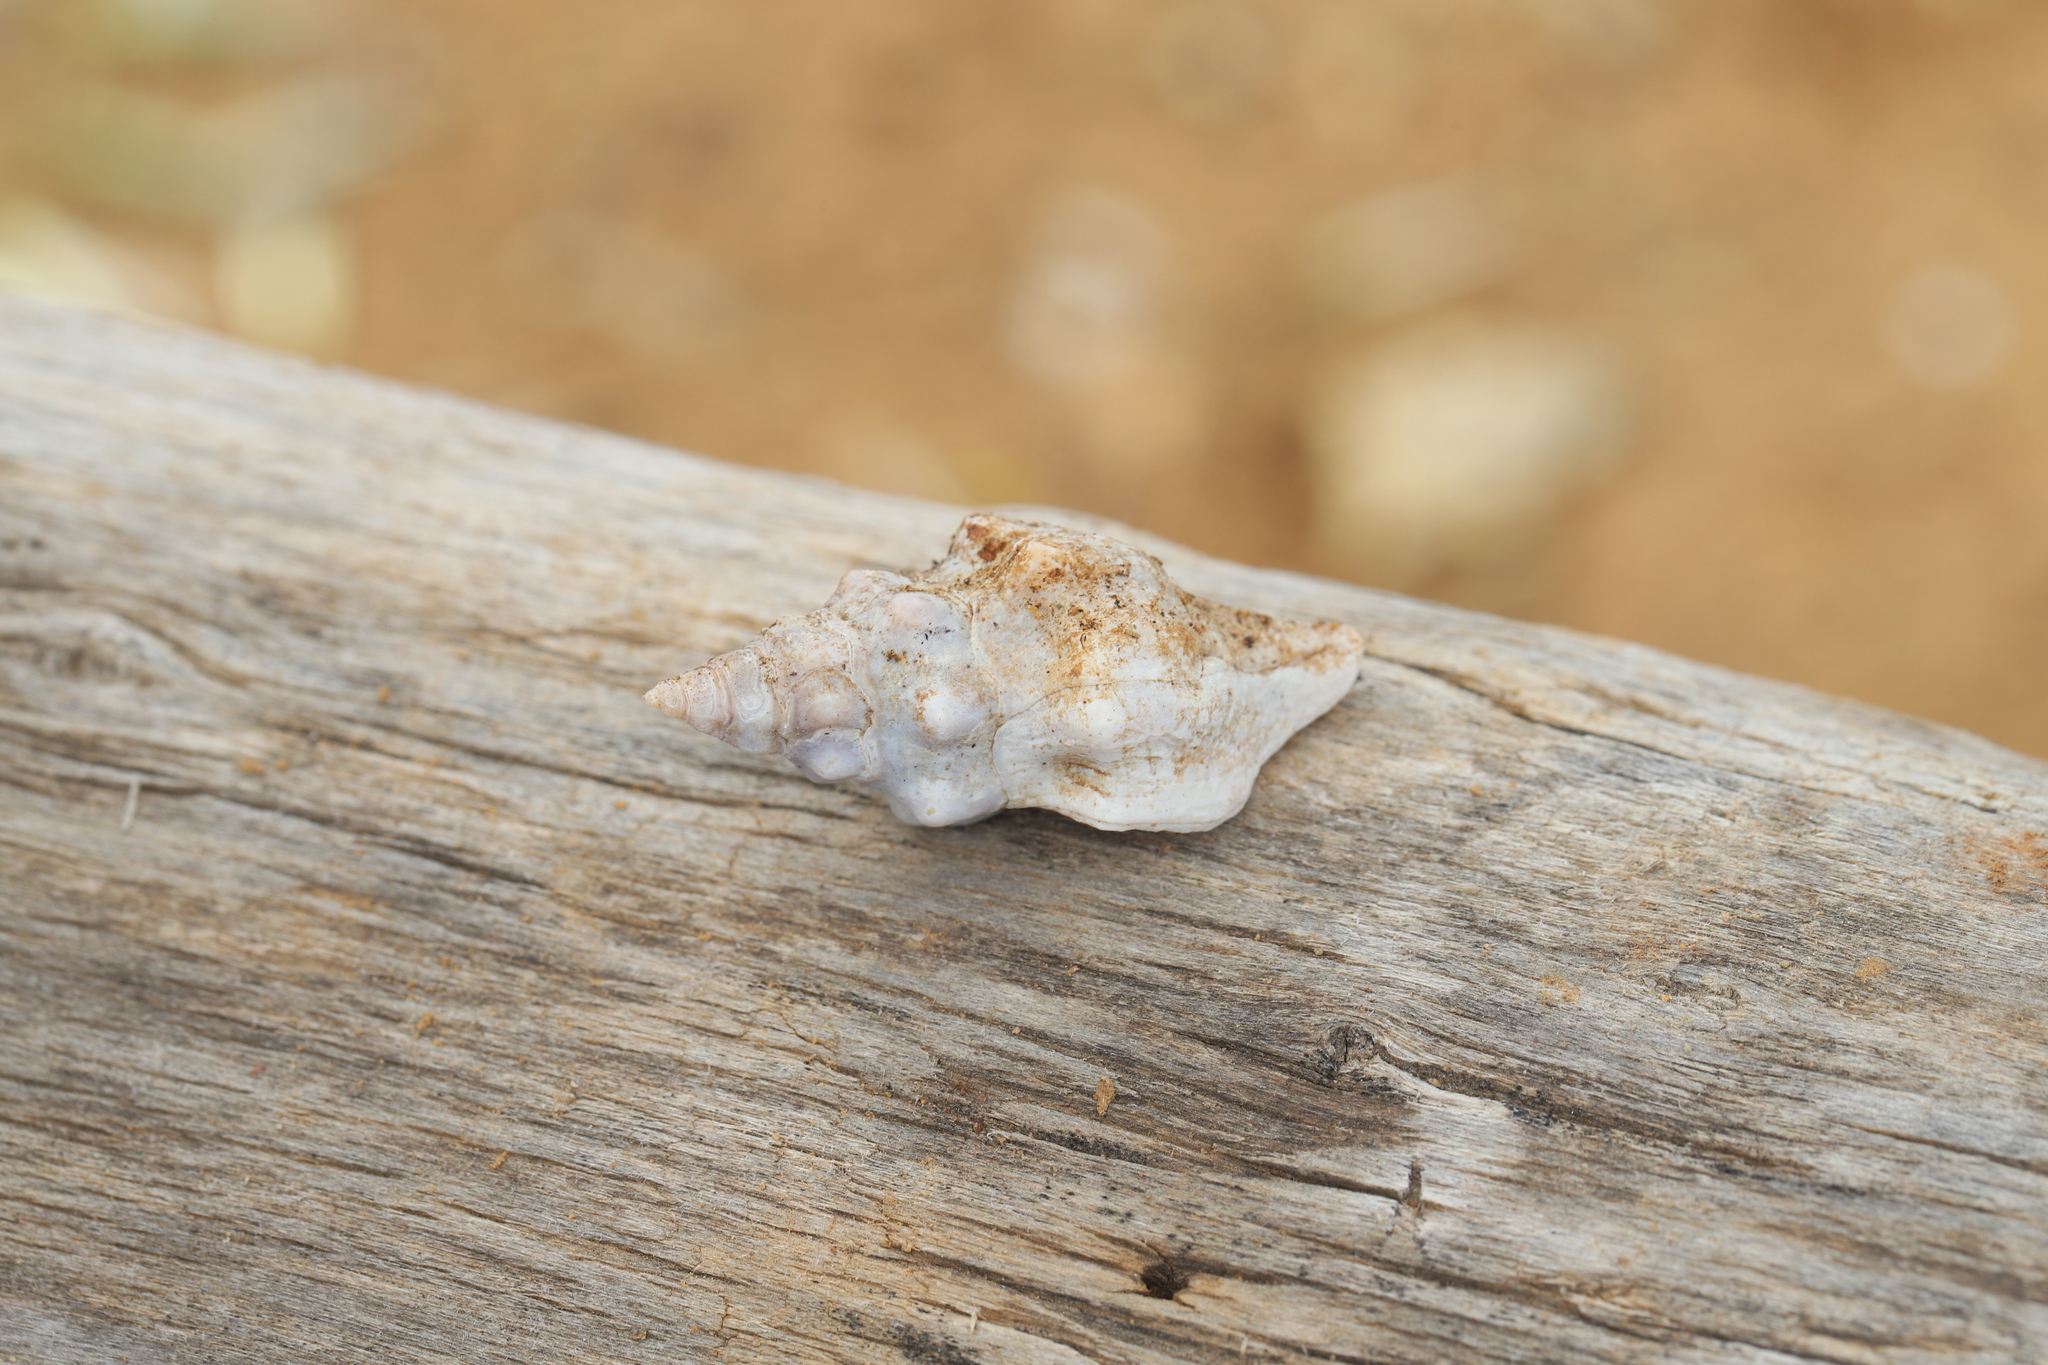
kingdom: Animalia
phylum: Mollusca
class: Gastropoda
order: Neogastropoda
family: Fasciolariidae
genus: Tarantinaea
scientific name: Tarantinaea lignaria
